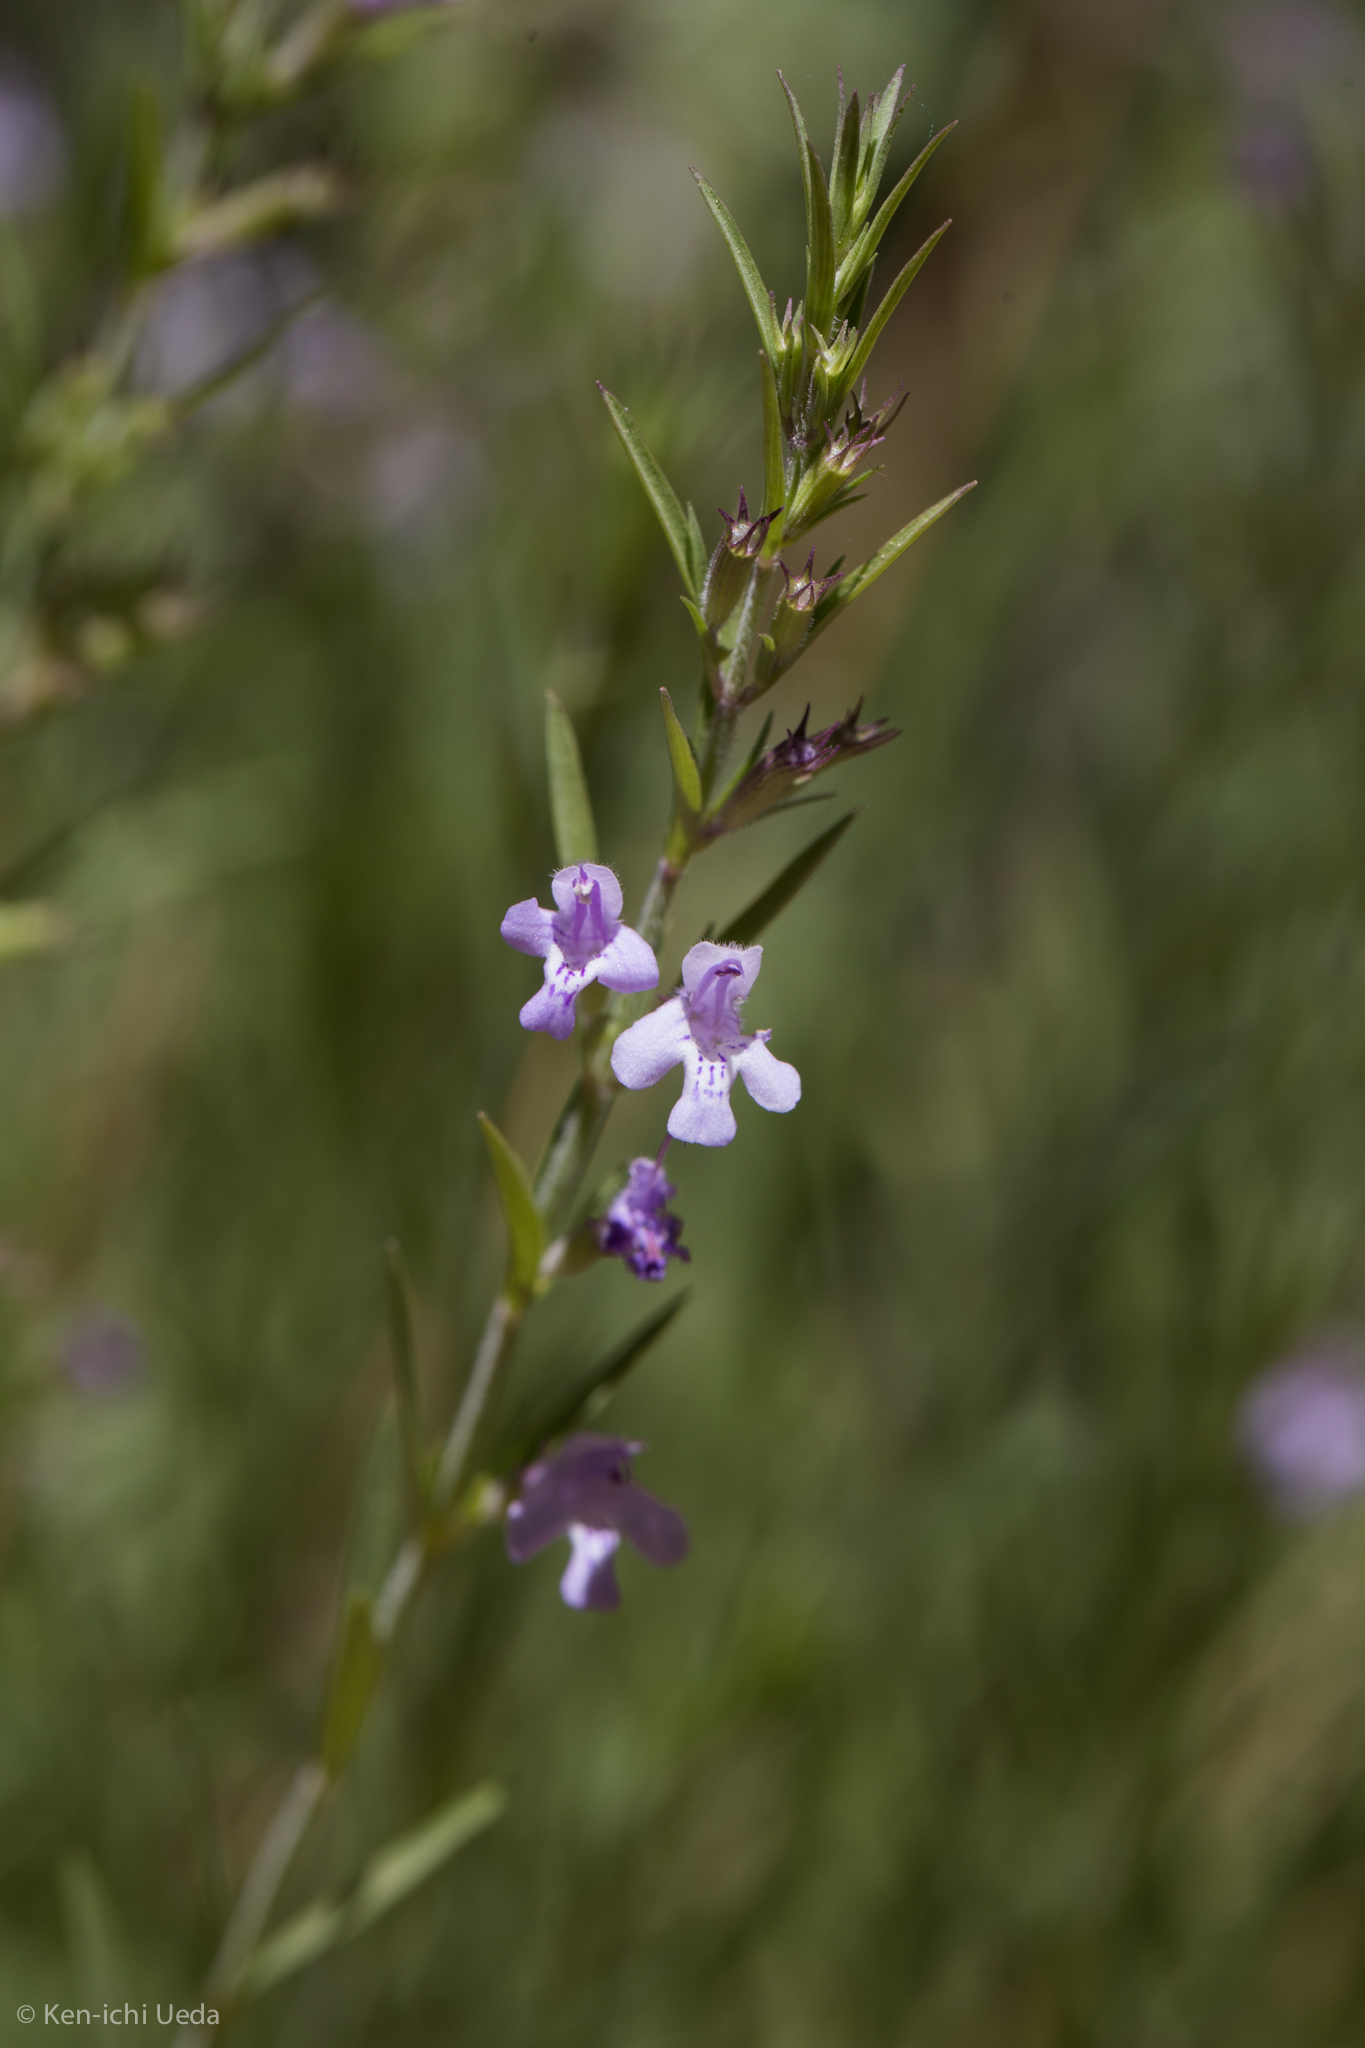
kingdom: Plantae
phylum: Tracheophyta
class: Magnoliopsida
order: Lamiales
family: Lamiaceae
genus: Hedeoma
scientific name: Hedeoma hyssopifolia
